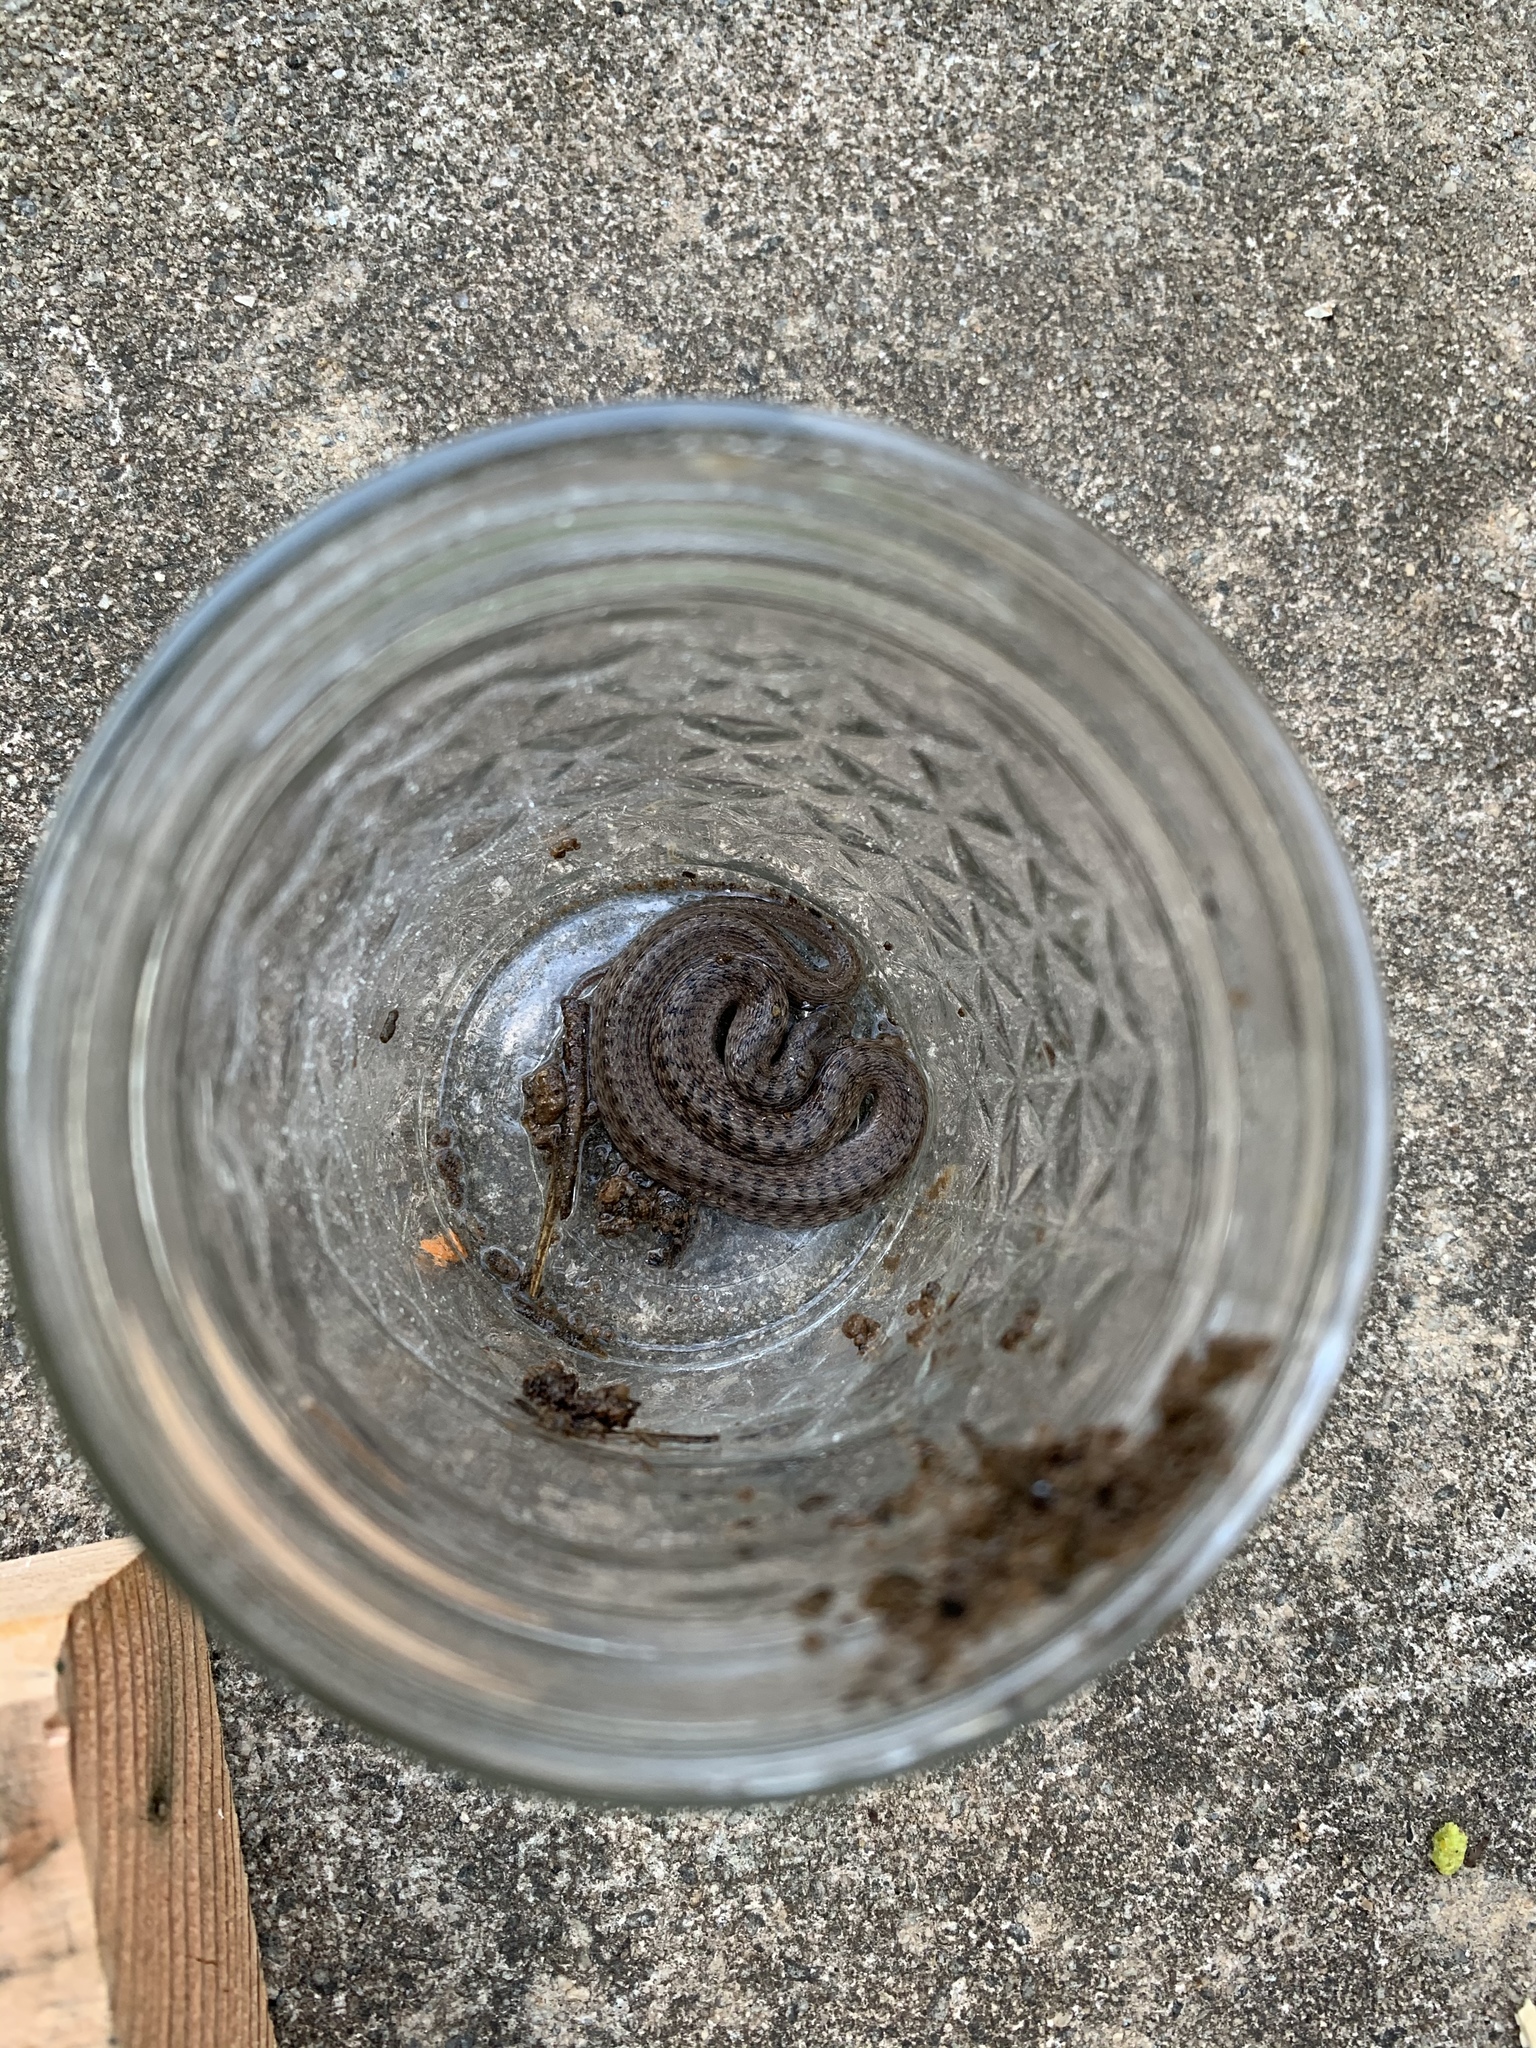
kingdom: Animalia
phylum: Chordata
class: Squamata
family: Colubridae
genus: Storeria
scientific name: Storeria dekayi
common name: (dekay’s) brown snake
